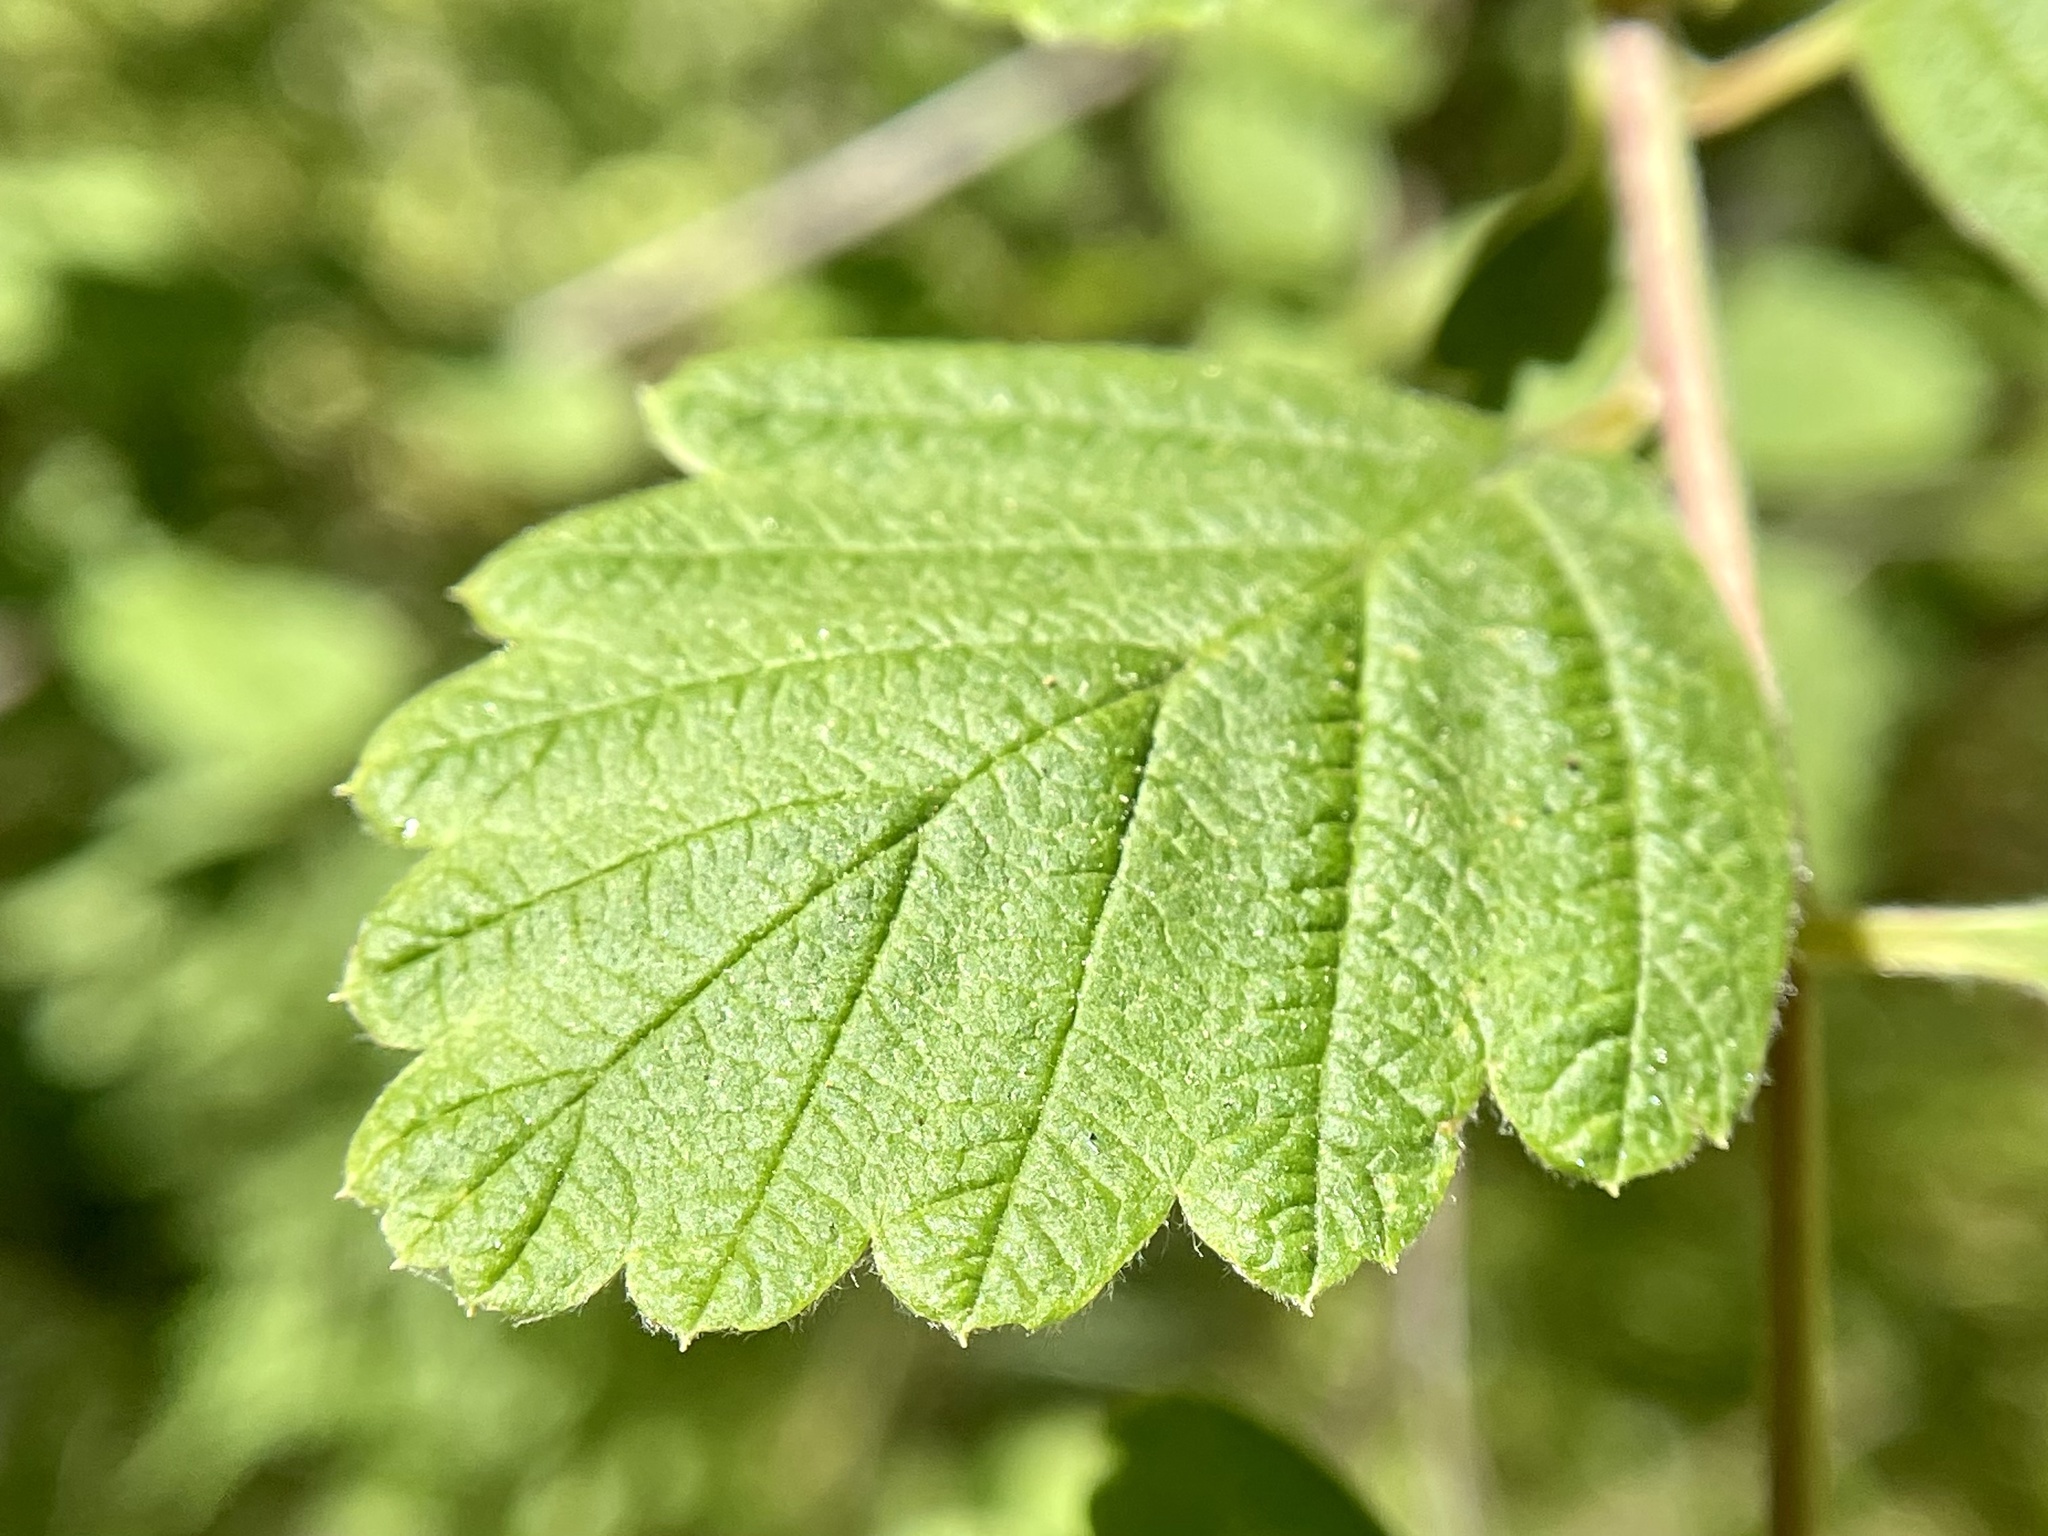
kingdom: Plantae
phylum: Tracheophyta
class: Magnoliopsida
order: Rosales
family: Rosaceae
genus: Holodiscus
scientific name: Holodiscus discolor
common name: Oceanspray
